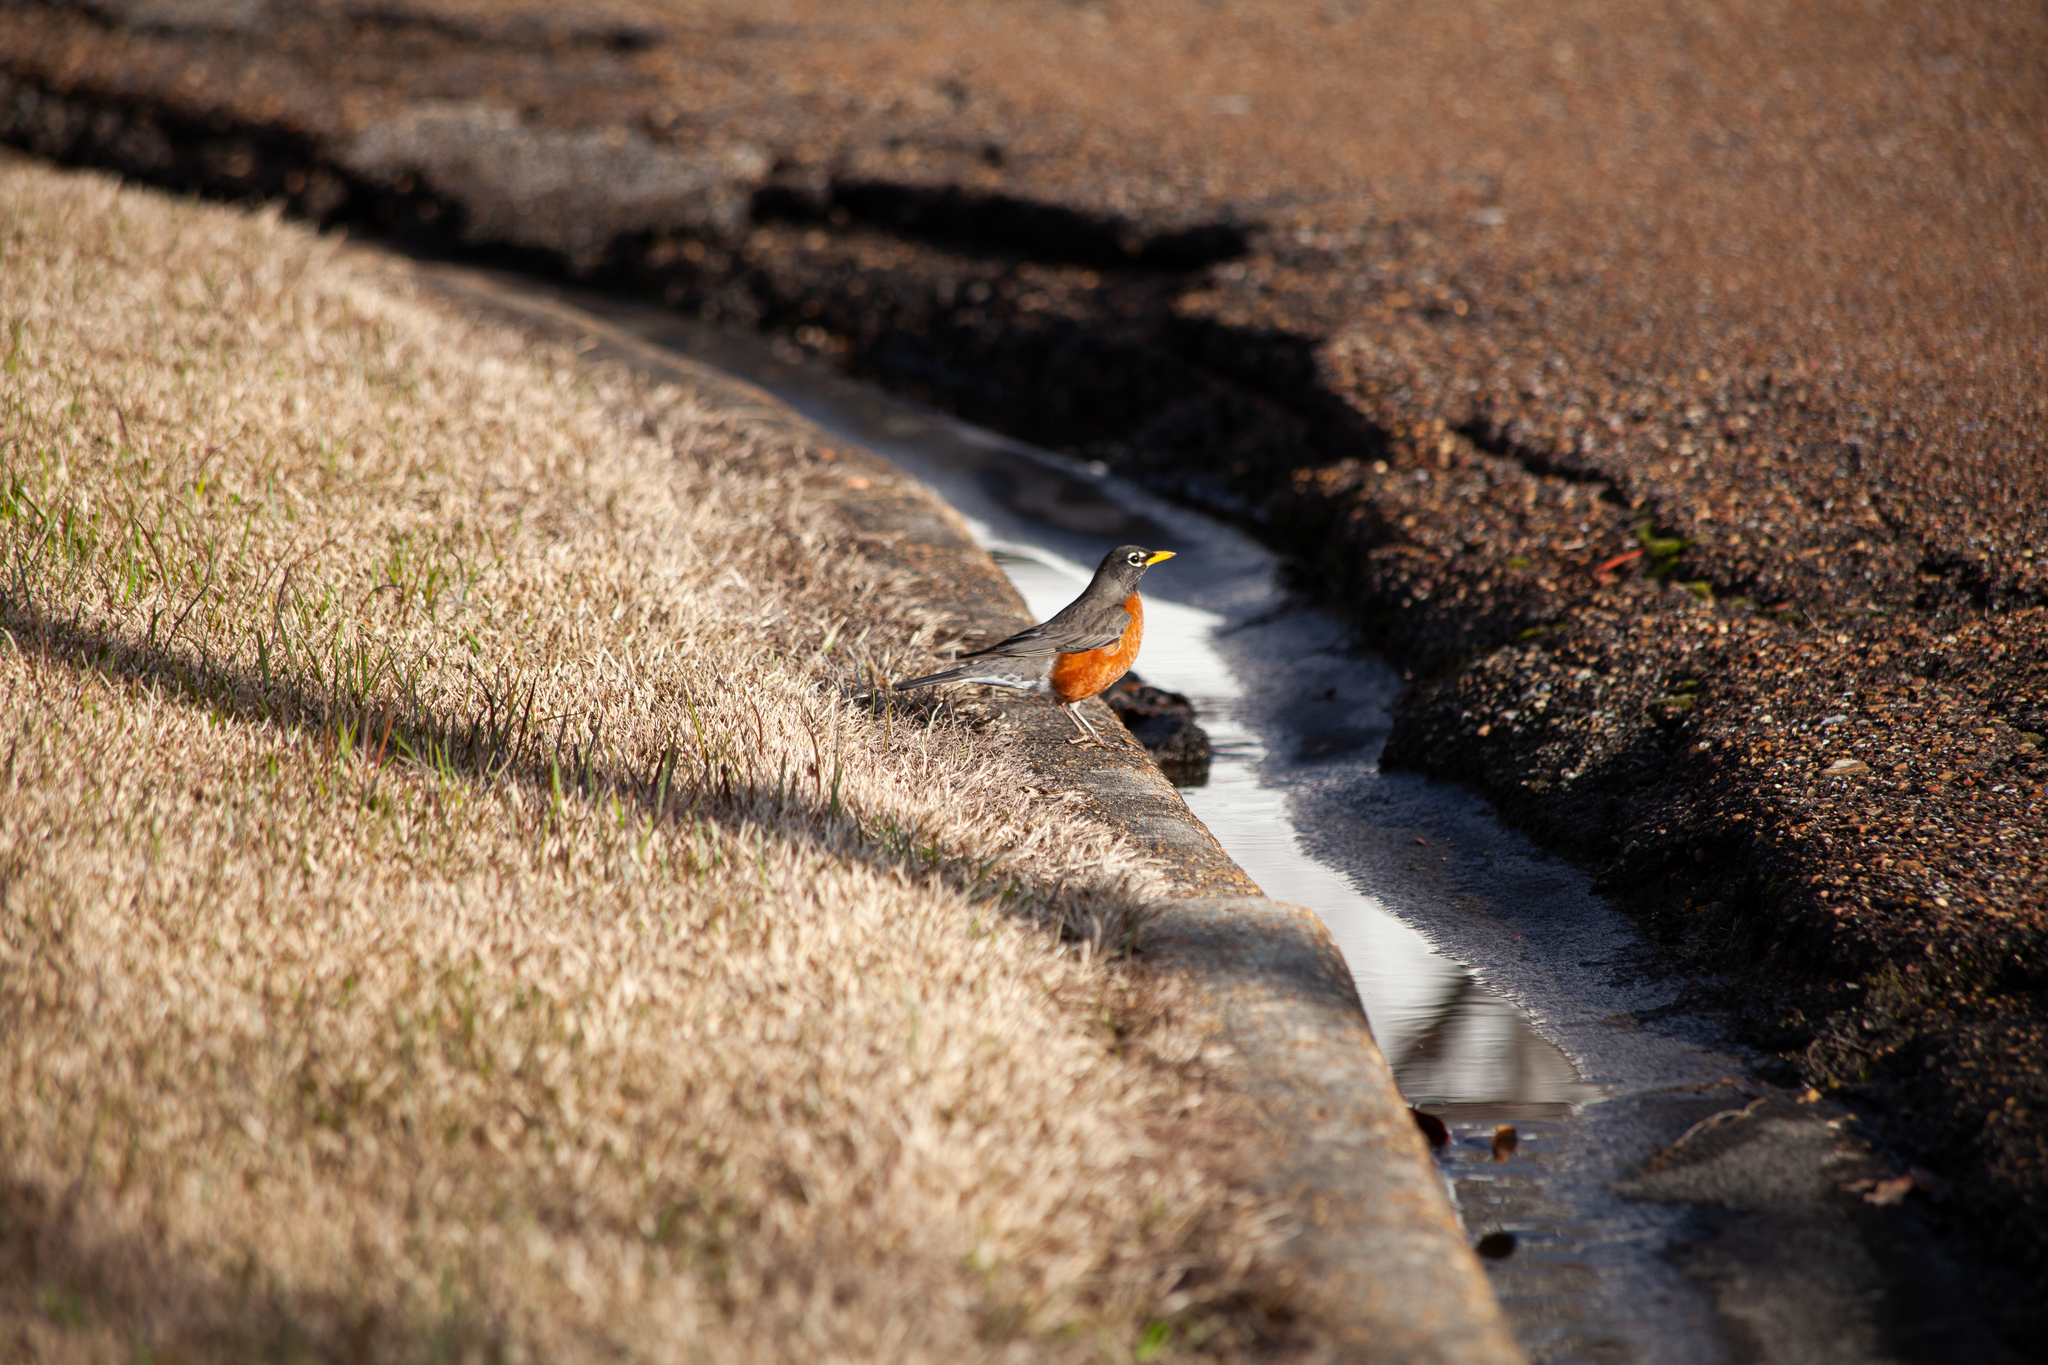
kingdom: Animalia
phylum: Chordata
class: Aves
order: Passeriformes
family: Turdidae
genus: Turdus
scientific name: Turdus migratorius
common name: American robin
